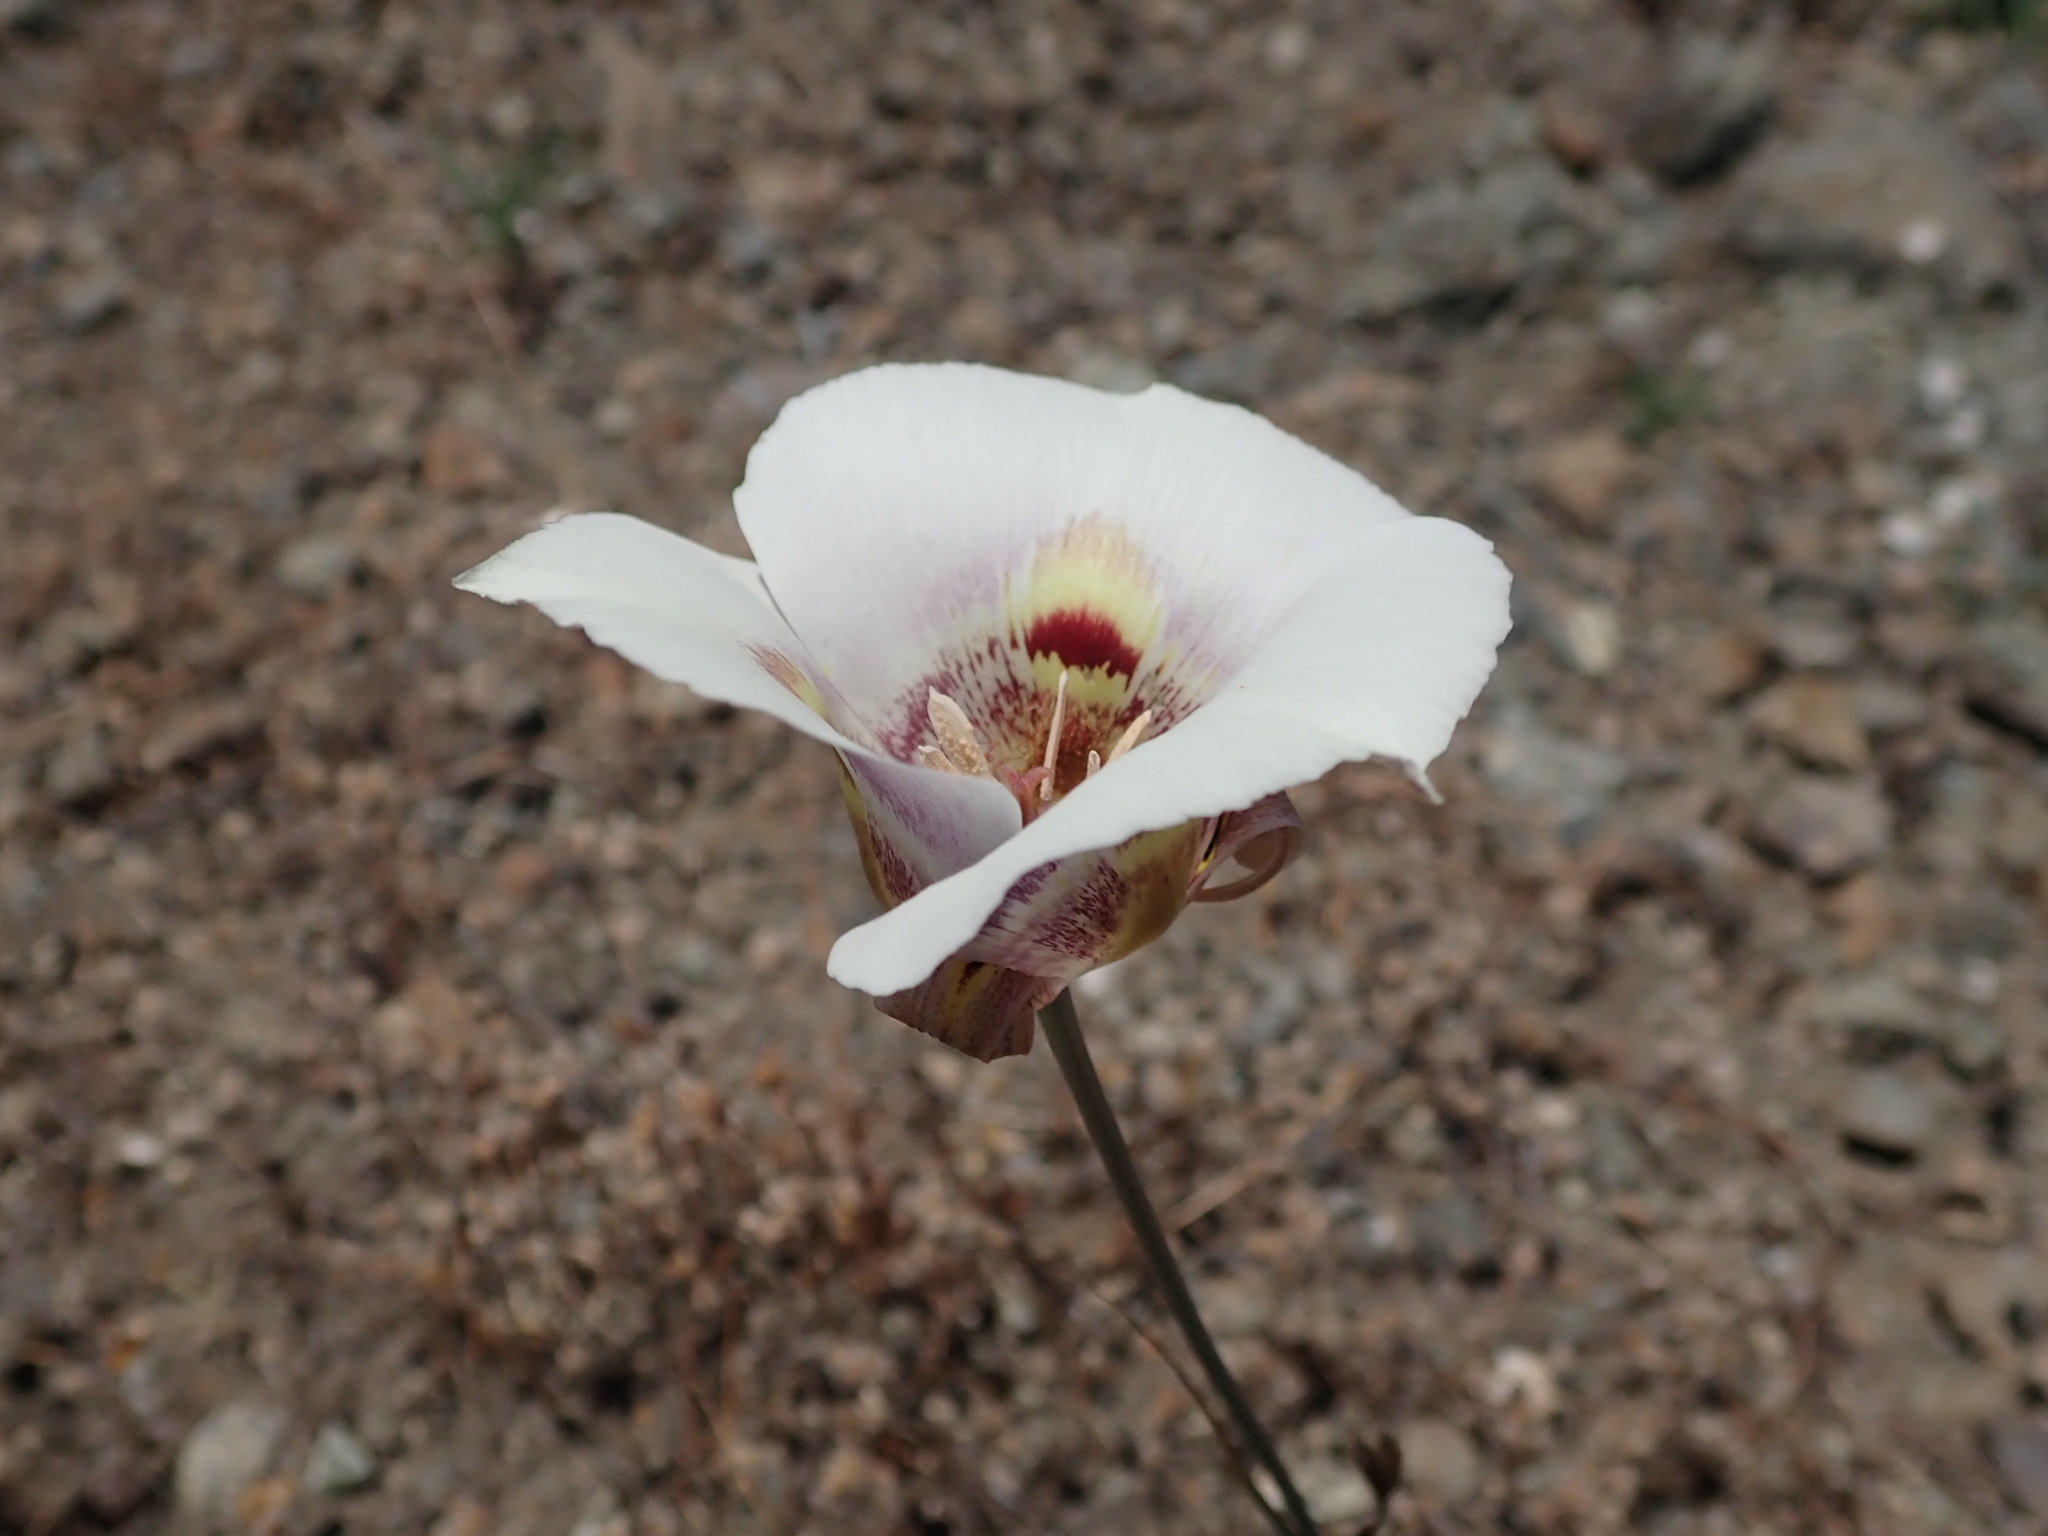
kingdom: Plantae
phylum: Tracheophyta
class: Liliopsida
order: Liliales
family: Liliaceae
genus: Calochortus
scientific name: Calochortus argillosus
